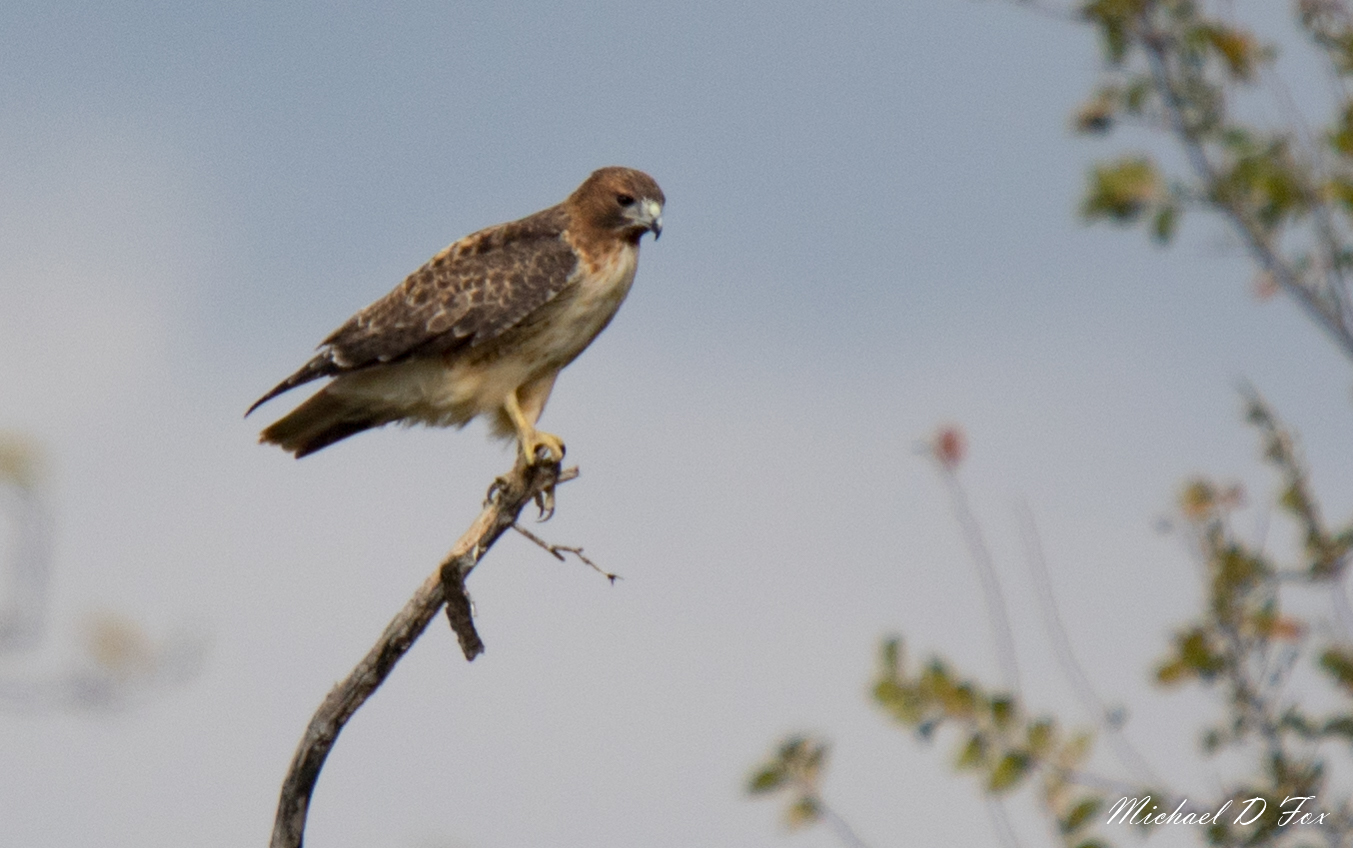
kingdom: Animalia
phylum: Chordata
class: Aves
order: Accipitriformes
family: Accipitridae
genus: Buteo
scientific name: Buteo jamaicensis
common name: Red-tailed hawk
